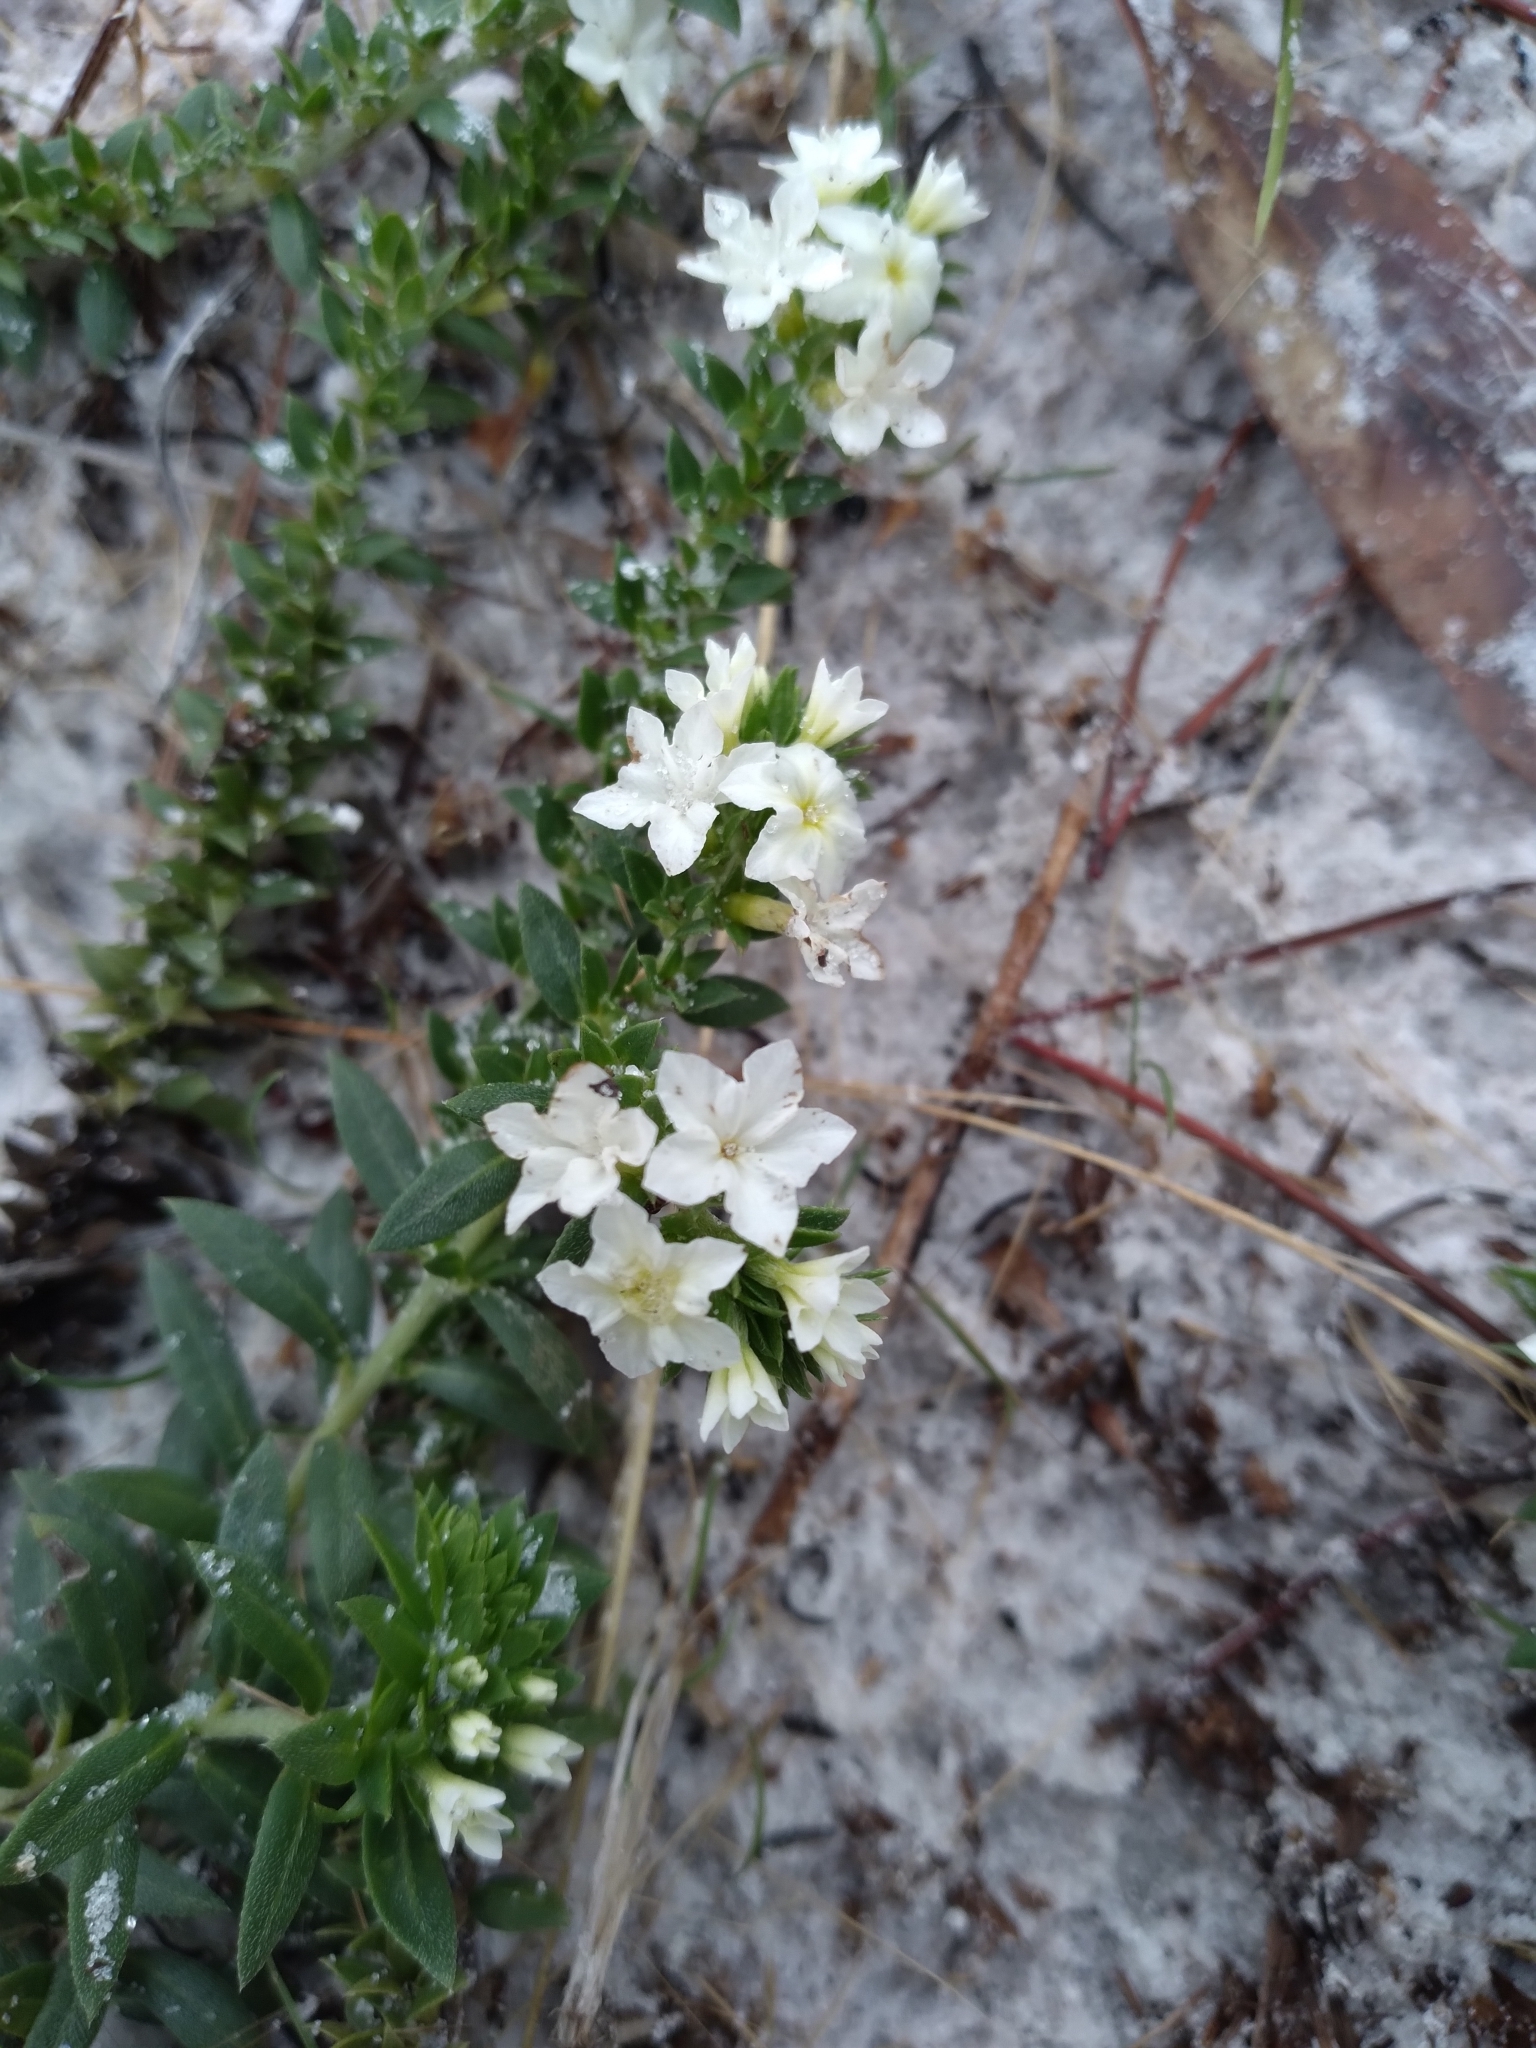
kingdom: Plantae
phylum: Tracheophyta
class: Magnoliopsida
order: Boraginales
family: Heliotropiaceae
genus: Euploca
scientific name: Euploca polyphylla
